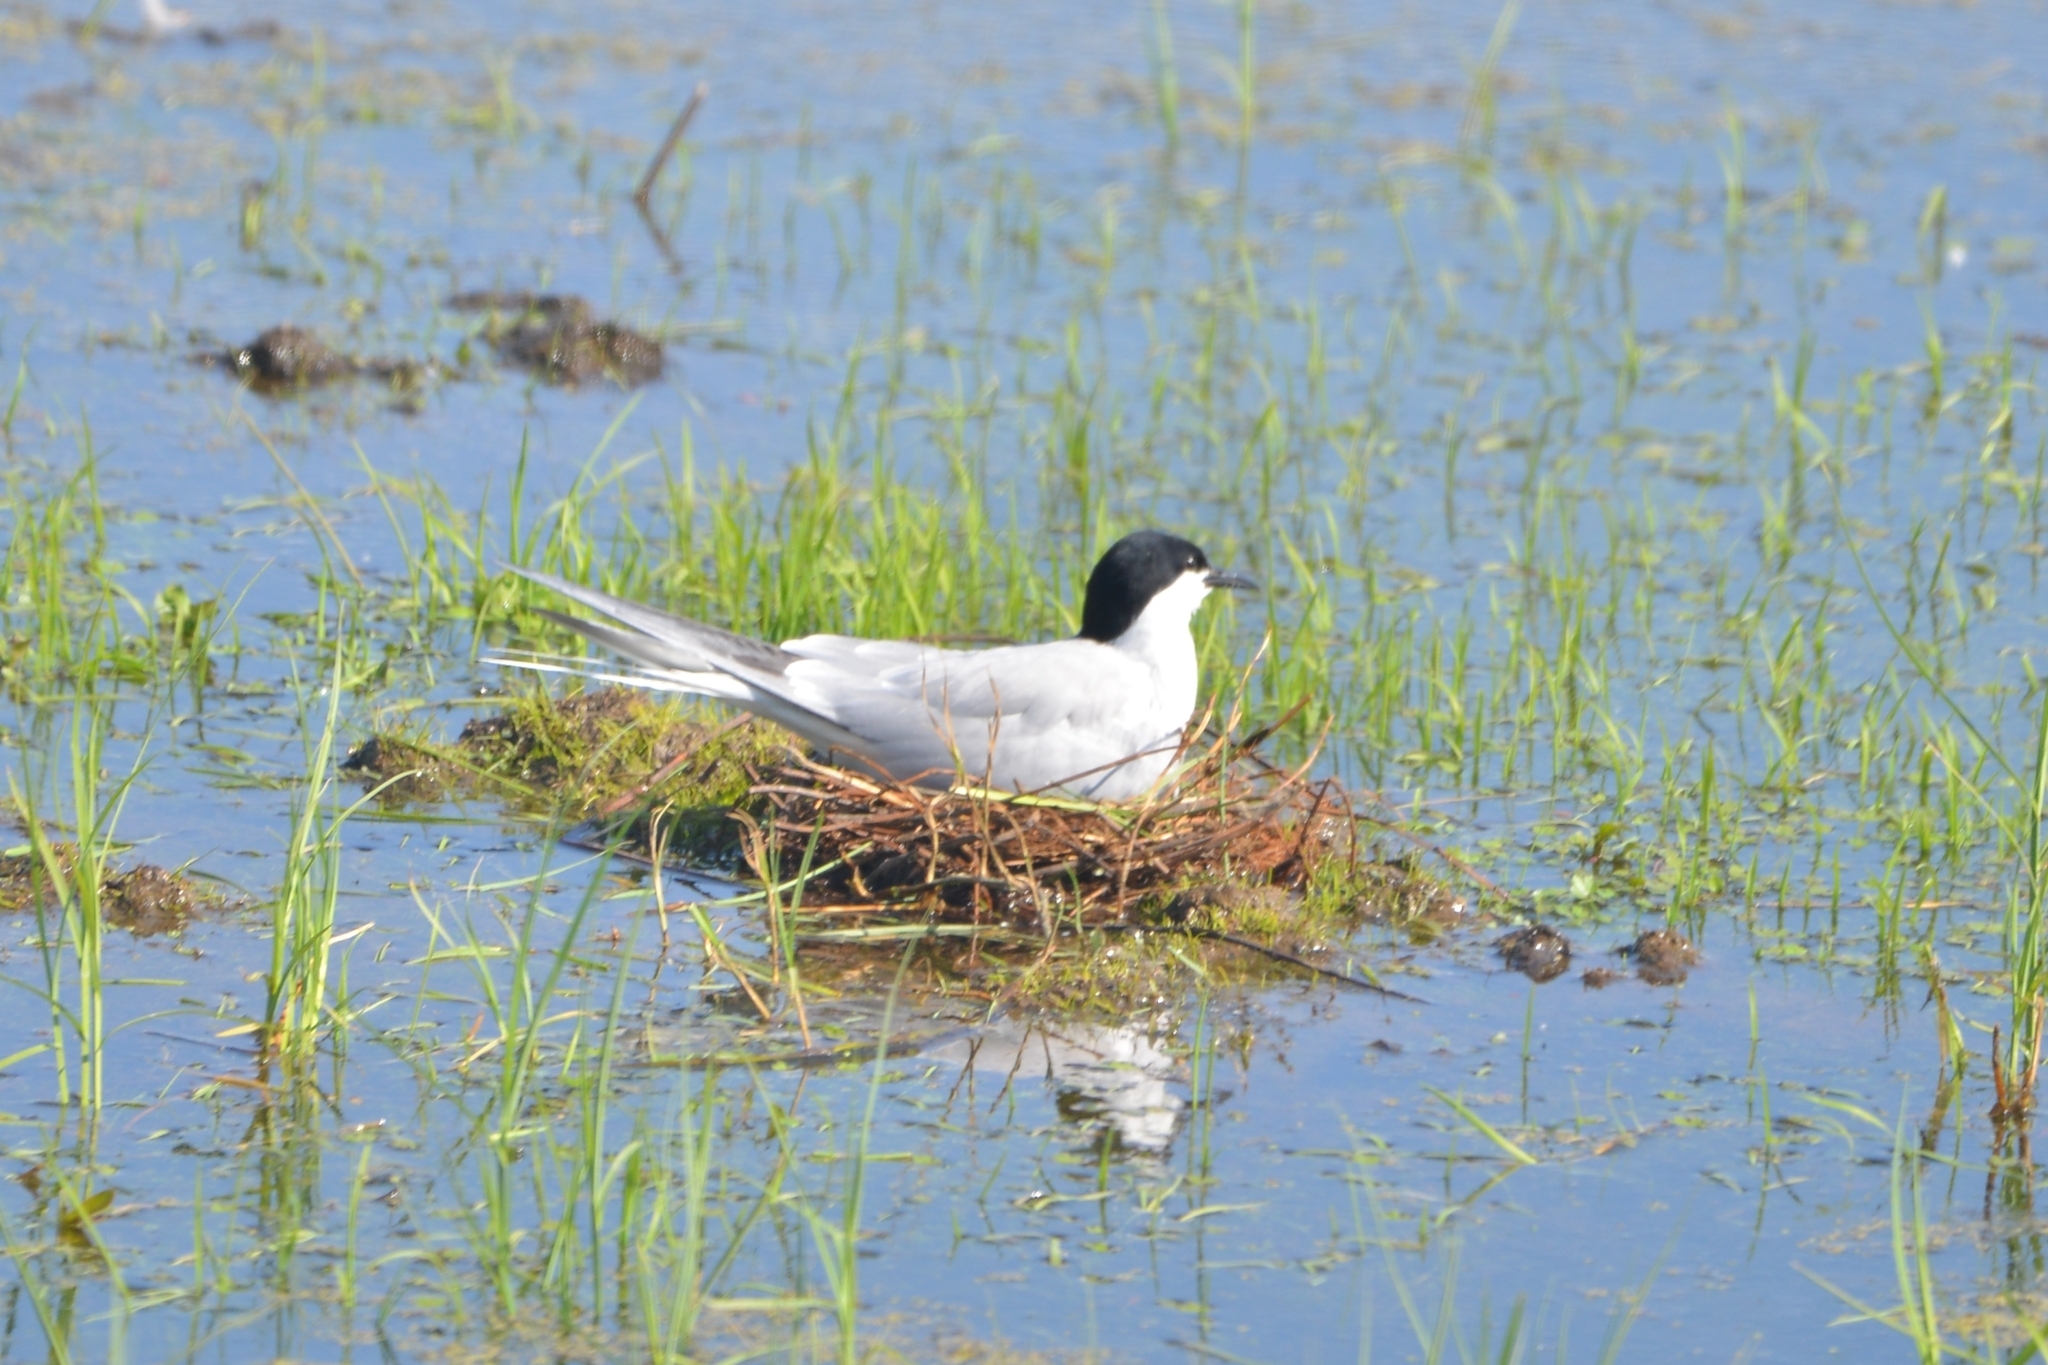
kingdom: Animalia
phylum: Chordata
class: Aves
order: Charadriiformes
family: Laridae
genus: Sterna
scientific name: Sterna hirundo
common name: Common tern
